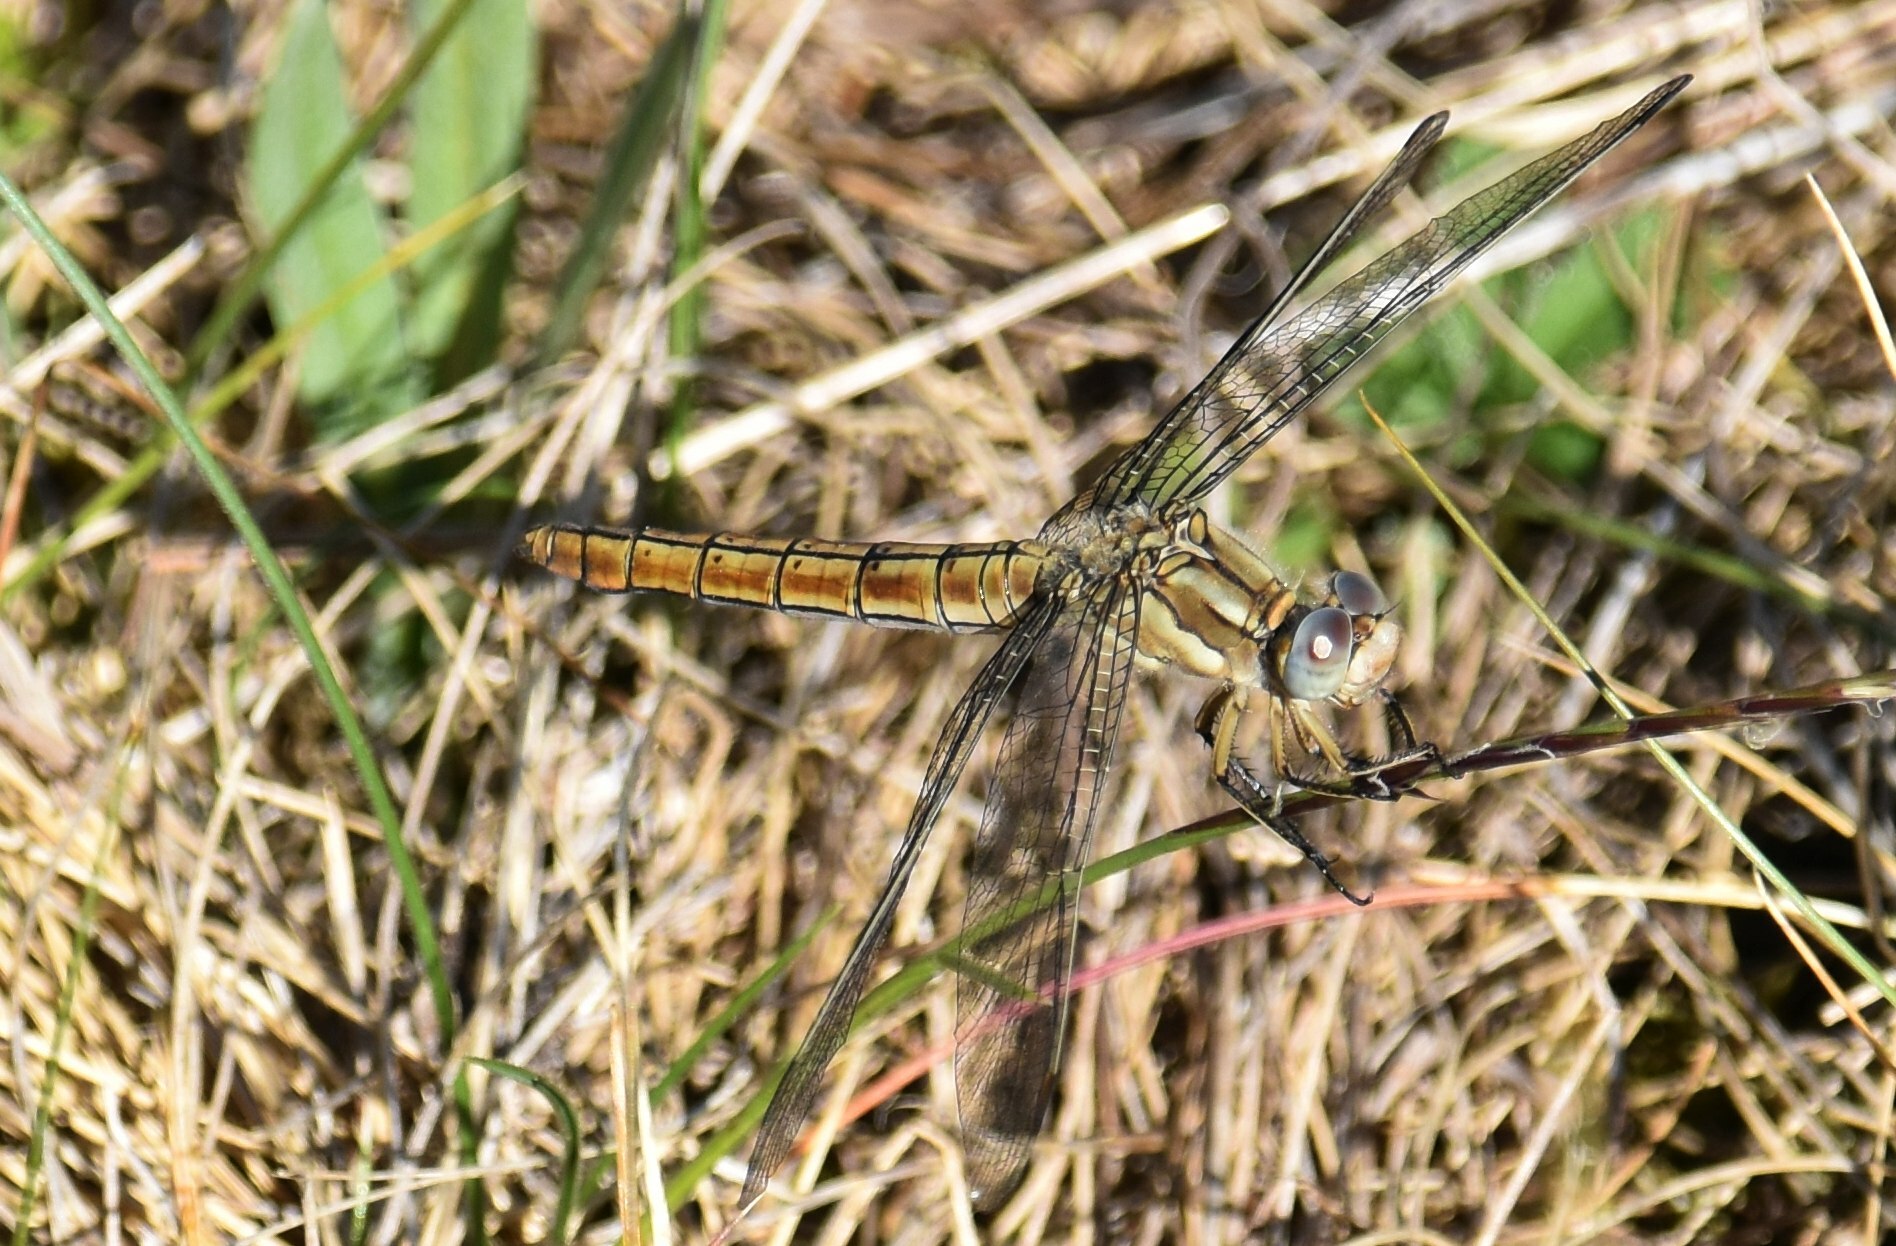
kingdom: Animalia
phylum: Arthropoda
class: Insecta
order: Odonata
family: Libellulidae
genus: Orthetrum
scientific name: Orthetrum brunneum
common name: Southern skimmer
